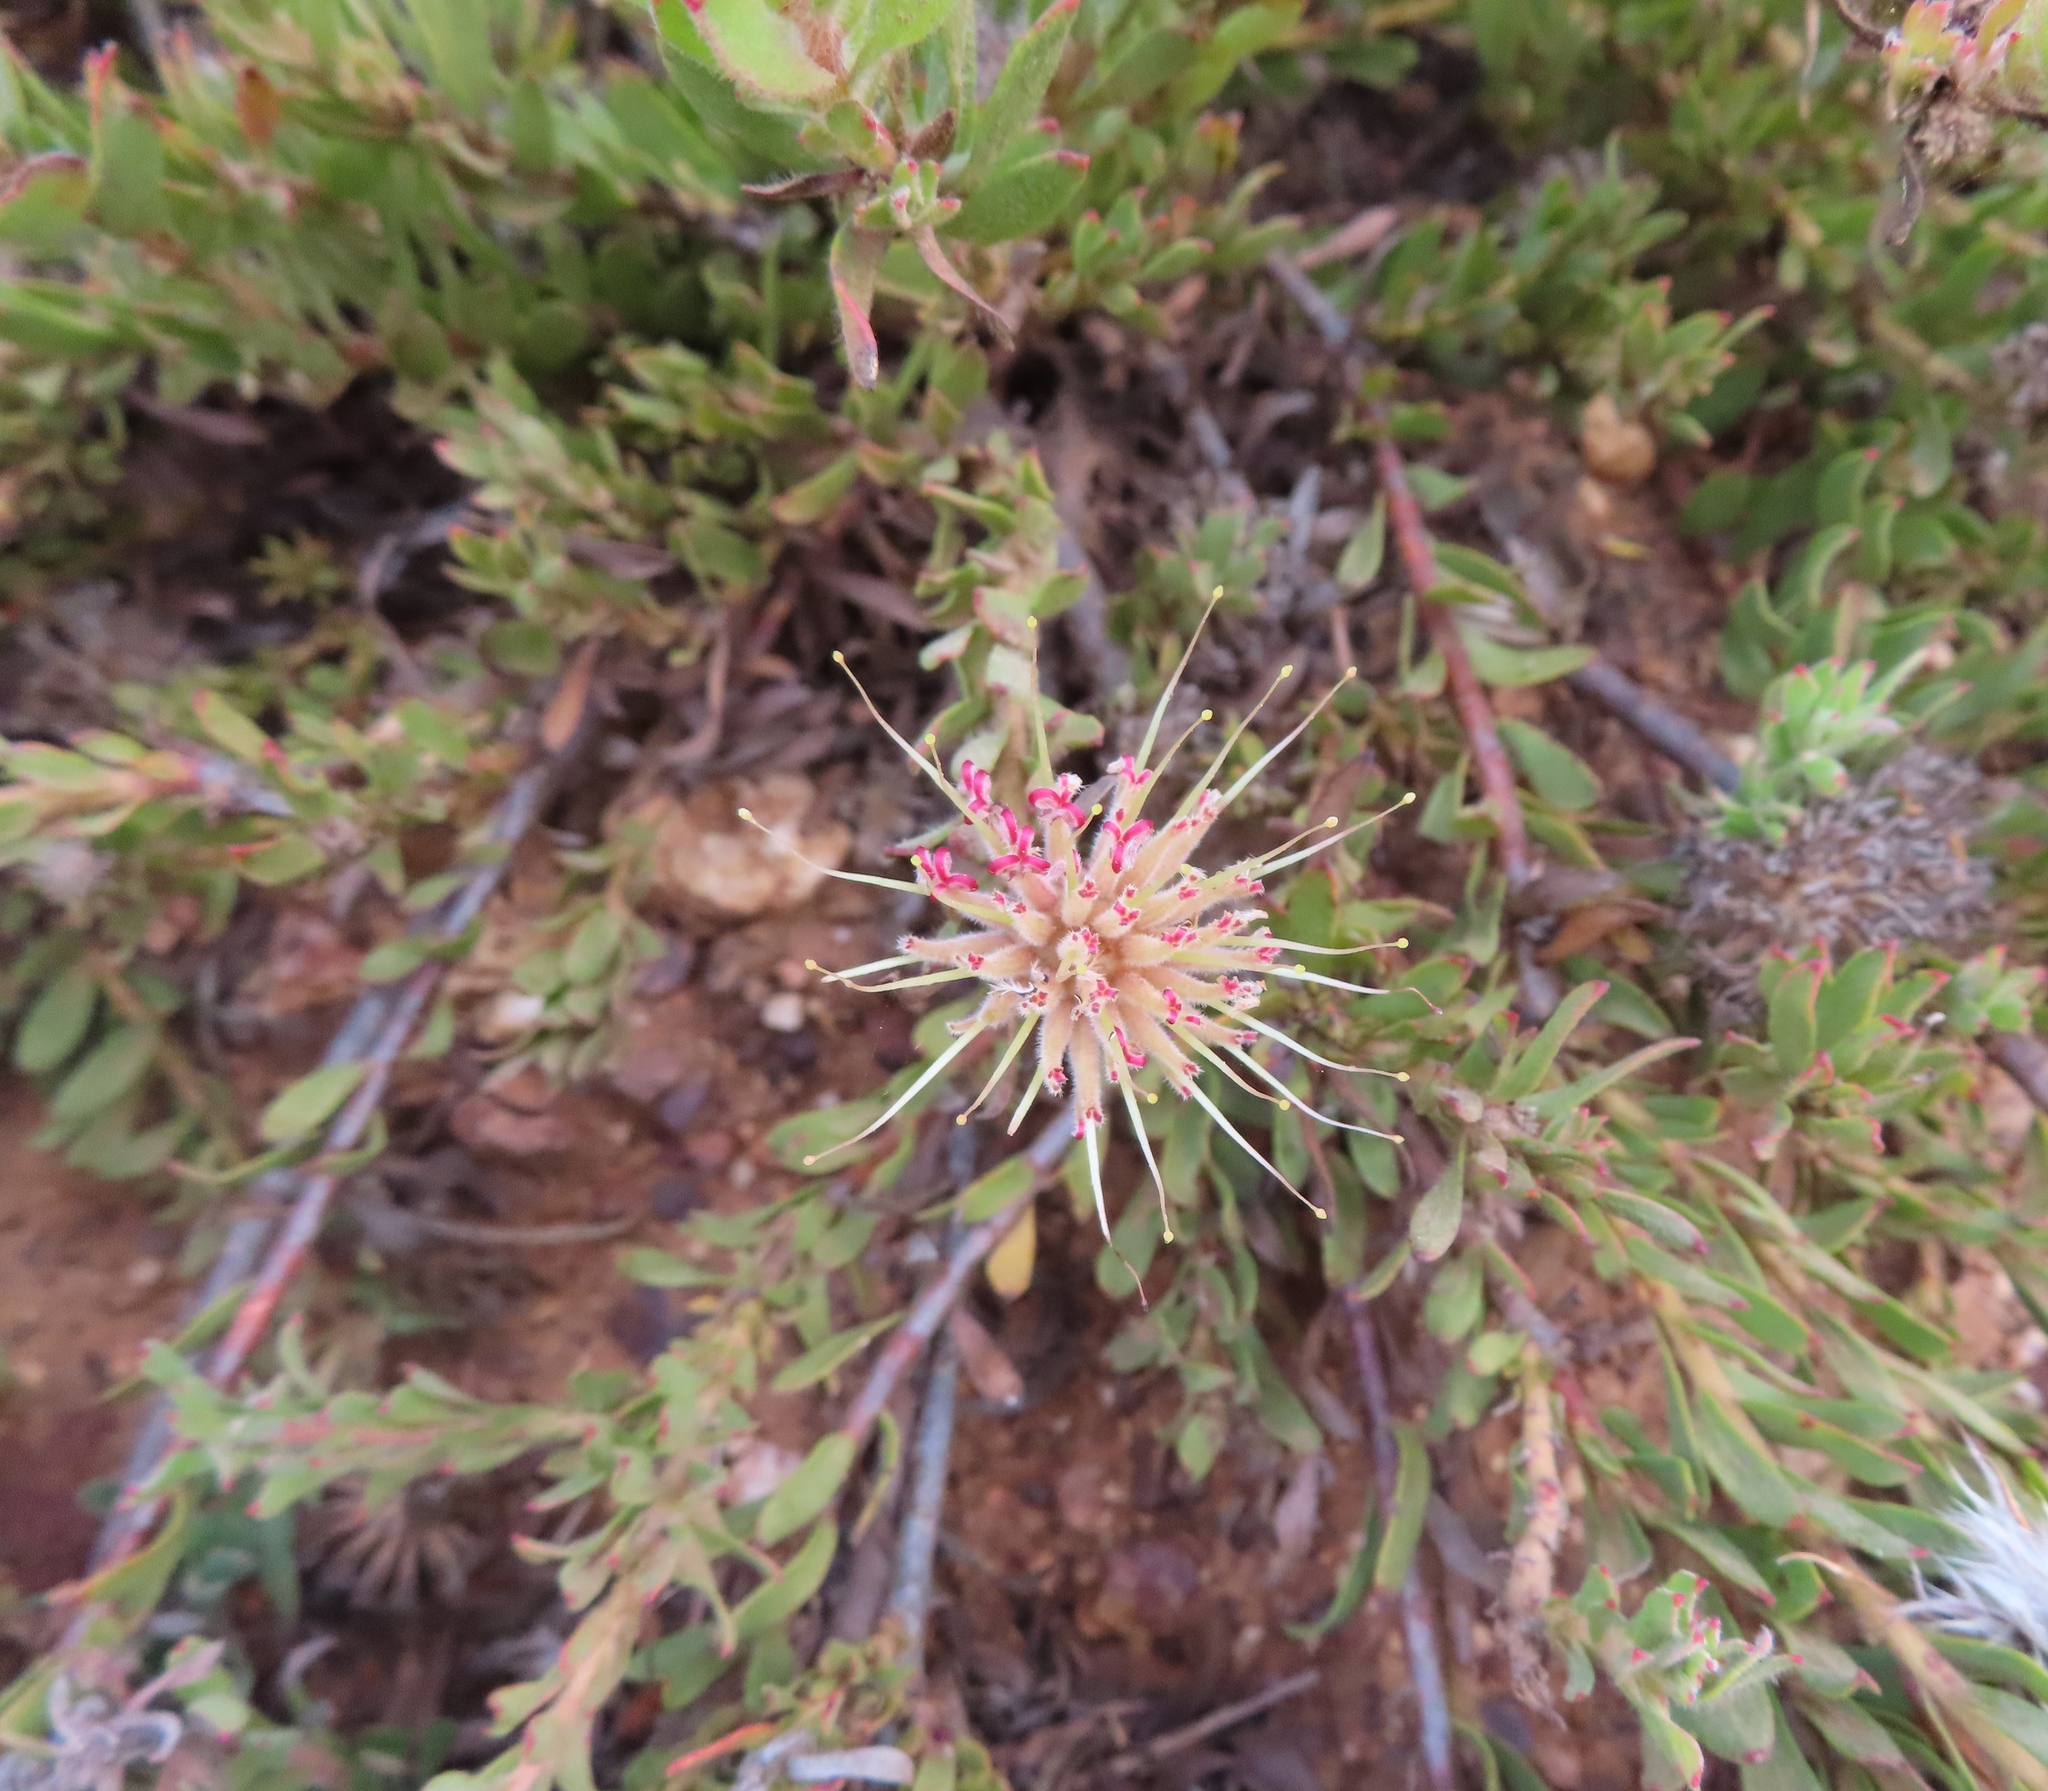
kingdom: Plantae
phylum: Tracheophyta
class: Magnoliopsida
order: Proteales
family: Proteaceae
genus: Leucospermum
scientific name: Leucospermum heterophyllum
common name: Trident pincushion
